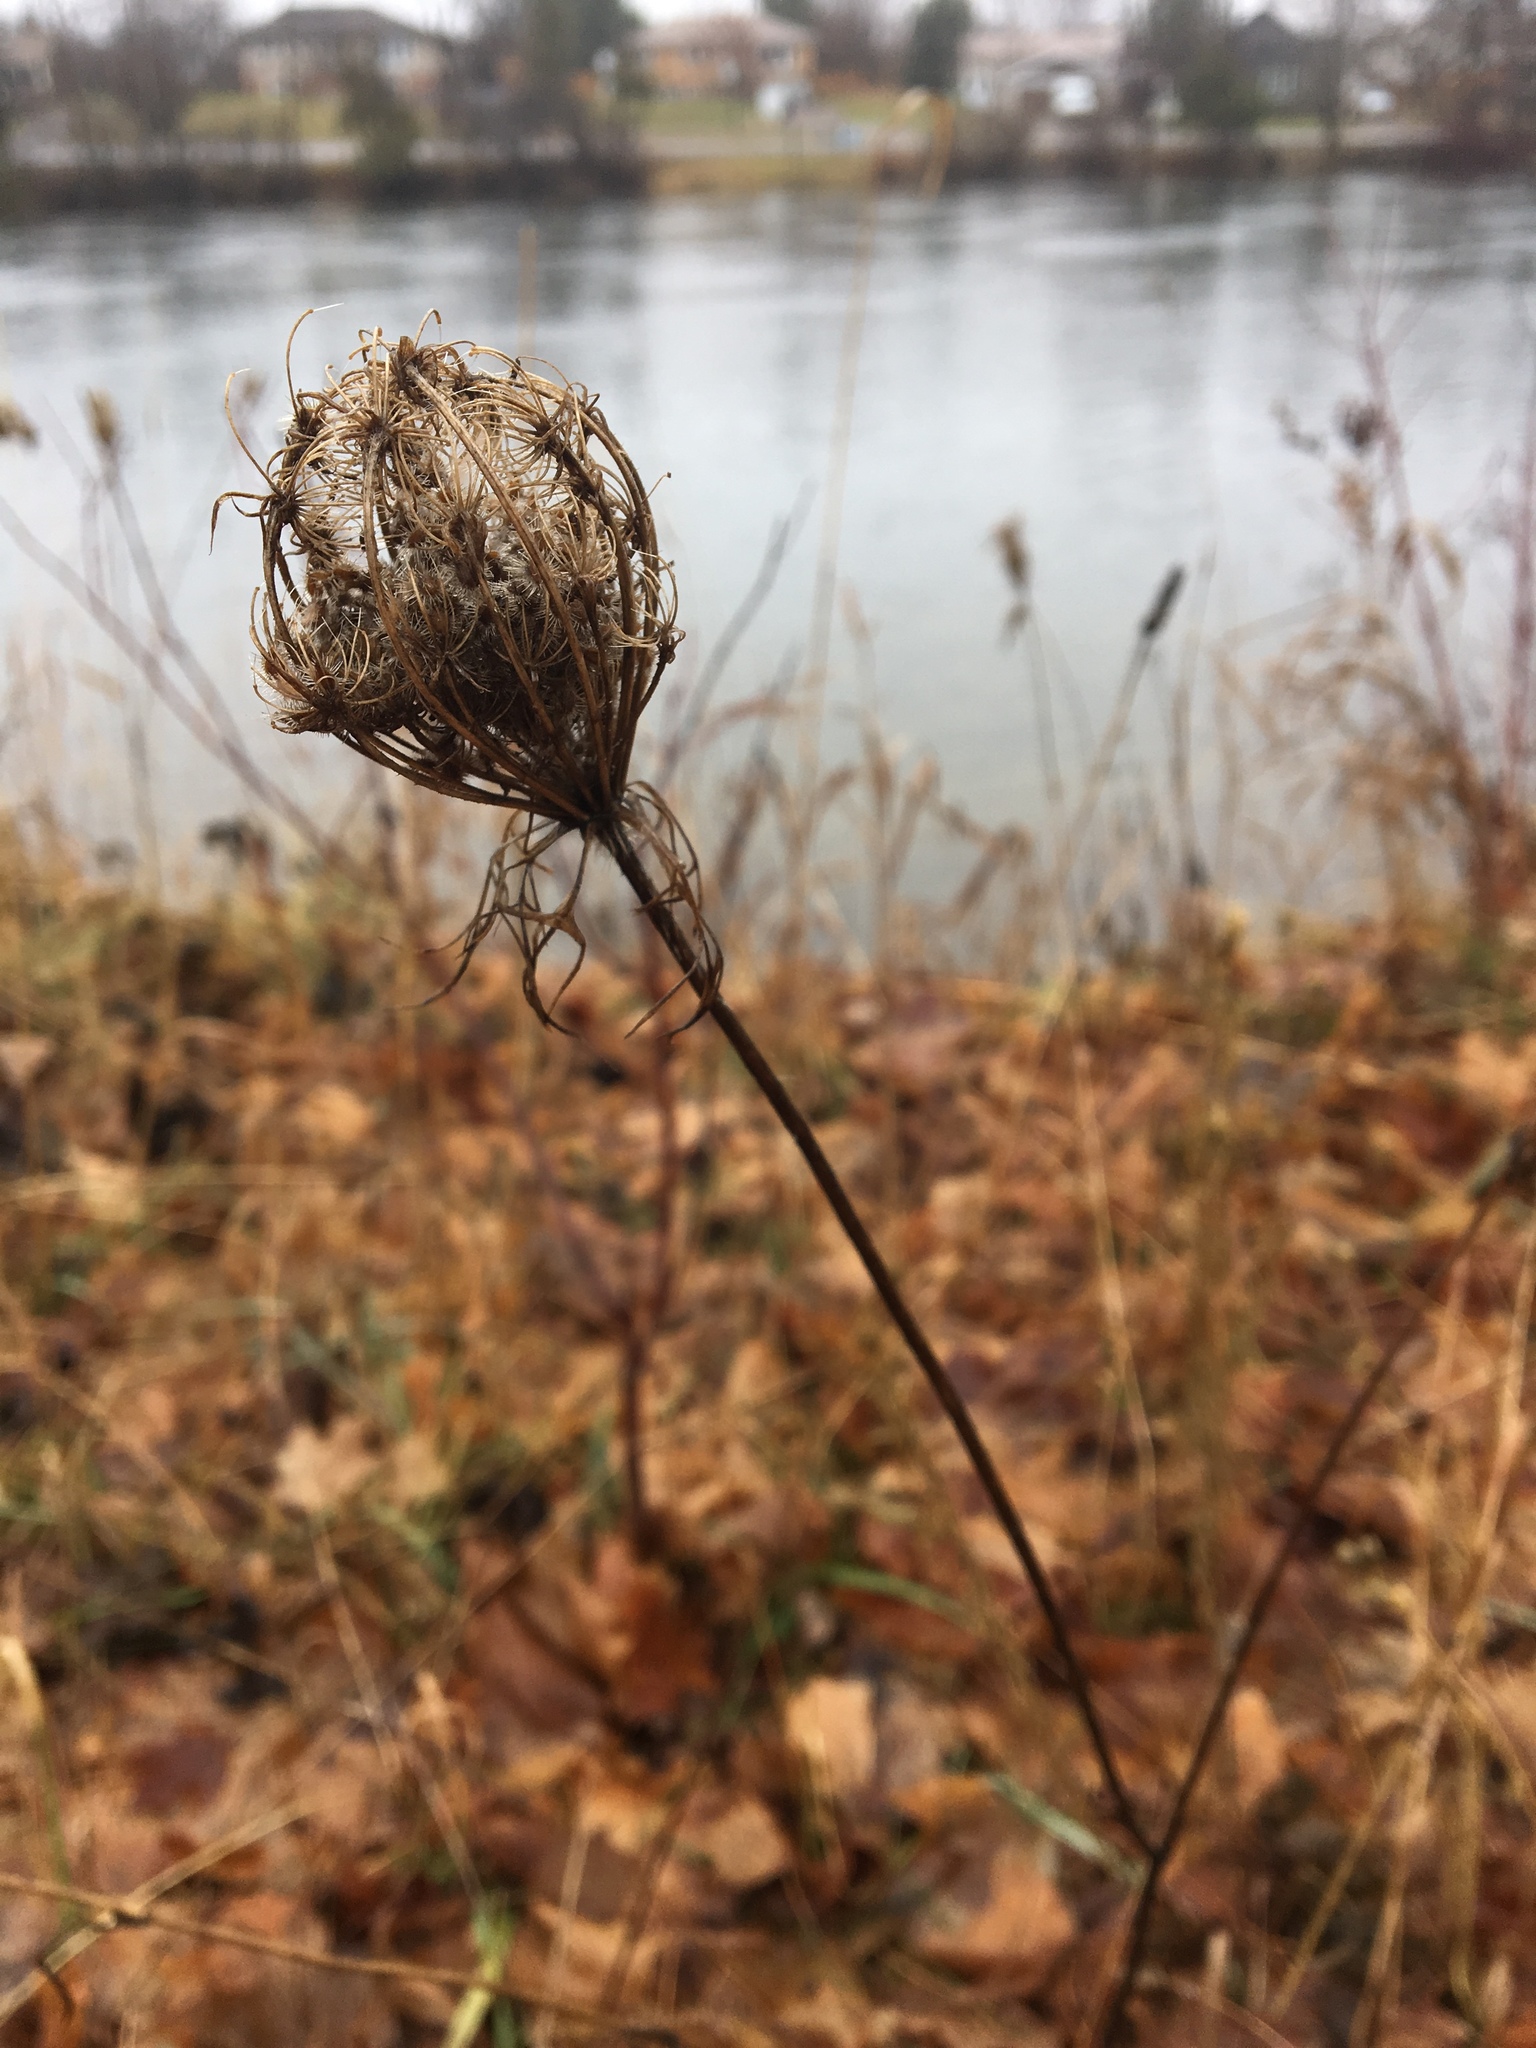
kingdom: Plantae
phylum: Tracheophyta
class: Magnoliopsida
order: Apiales
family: Apiaceae
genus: Daucus
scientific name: Daucus carota
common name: Wild carrot
